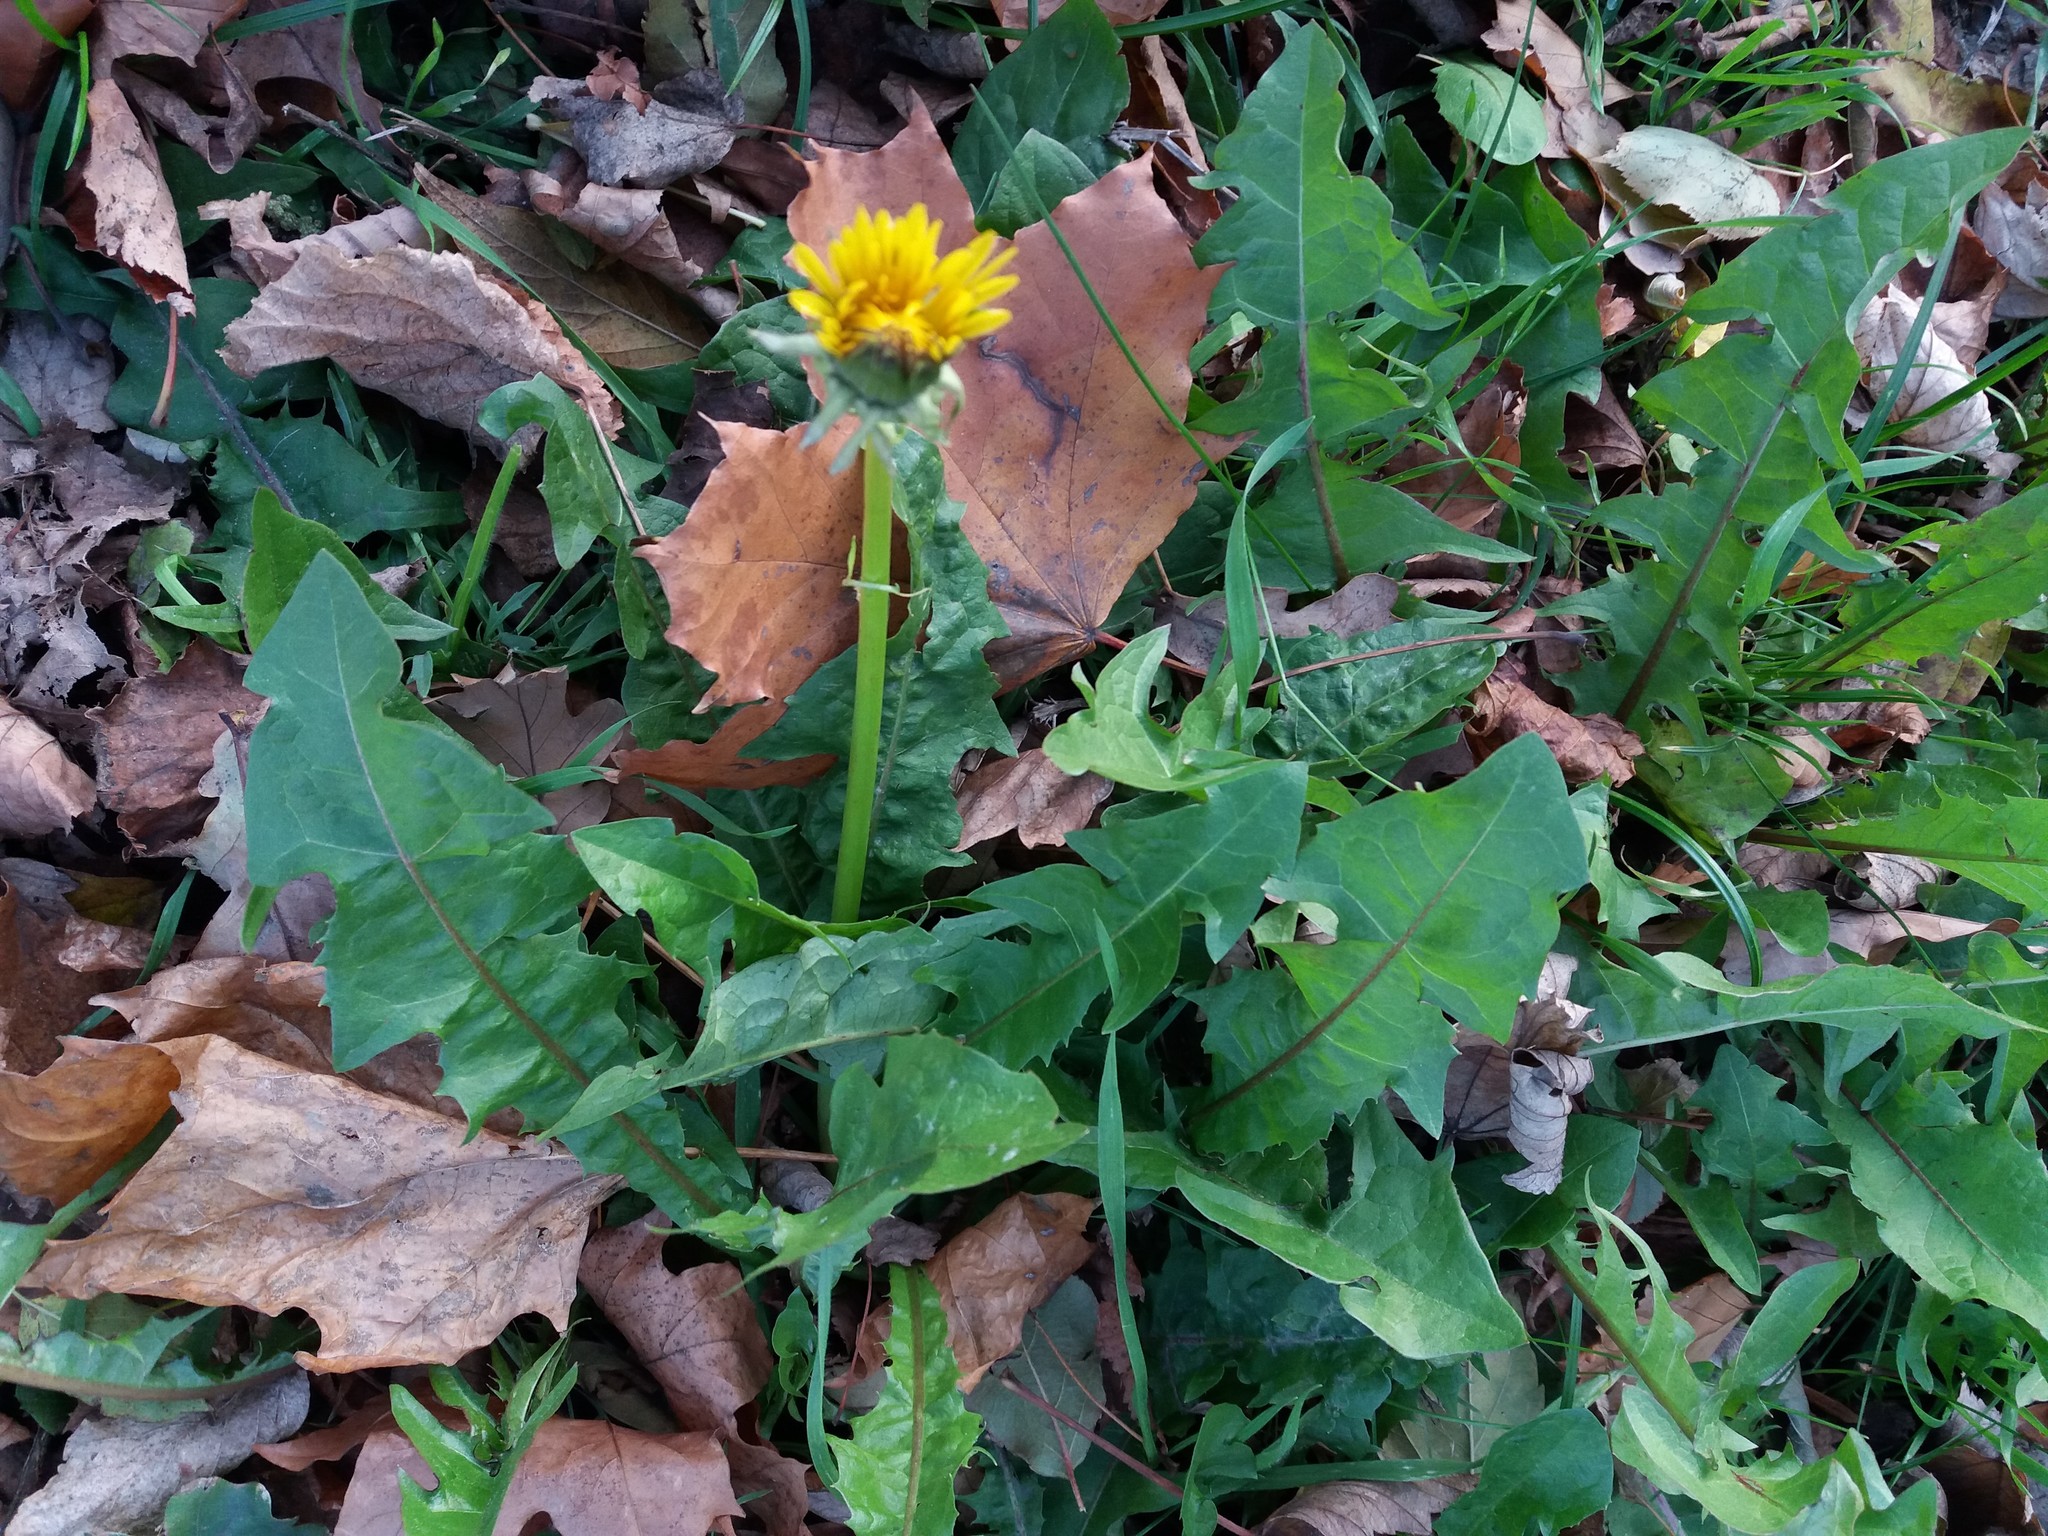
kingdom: Plantae
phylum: Tracheophyta
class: Magnoliopsida
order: Asterales
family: Asteraceae
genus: Taraxacum
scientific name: Taraxacum officinale
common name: Common dandelion
